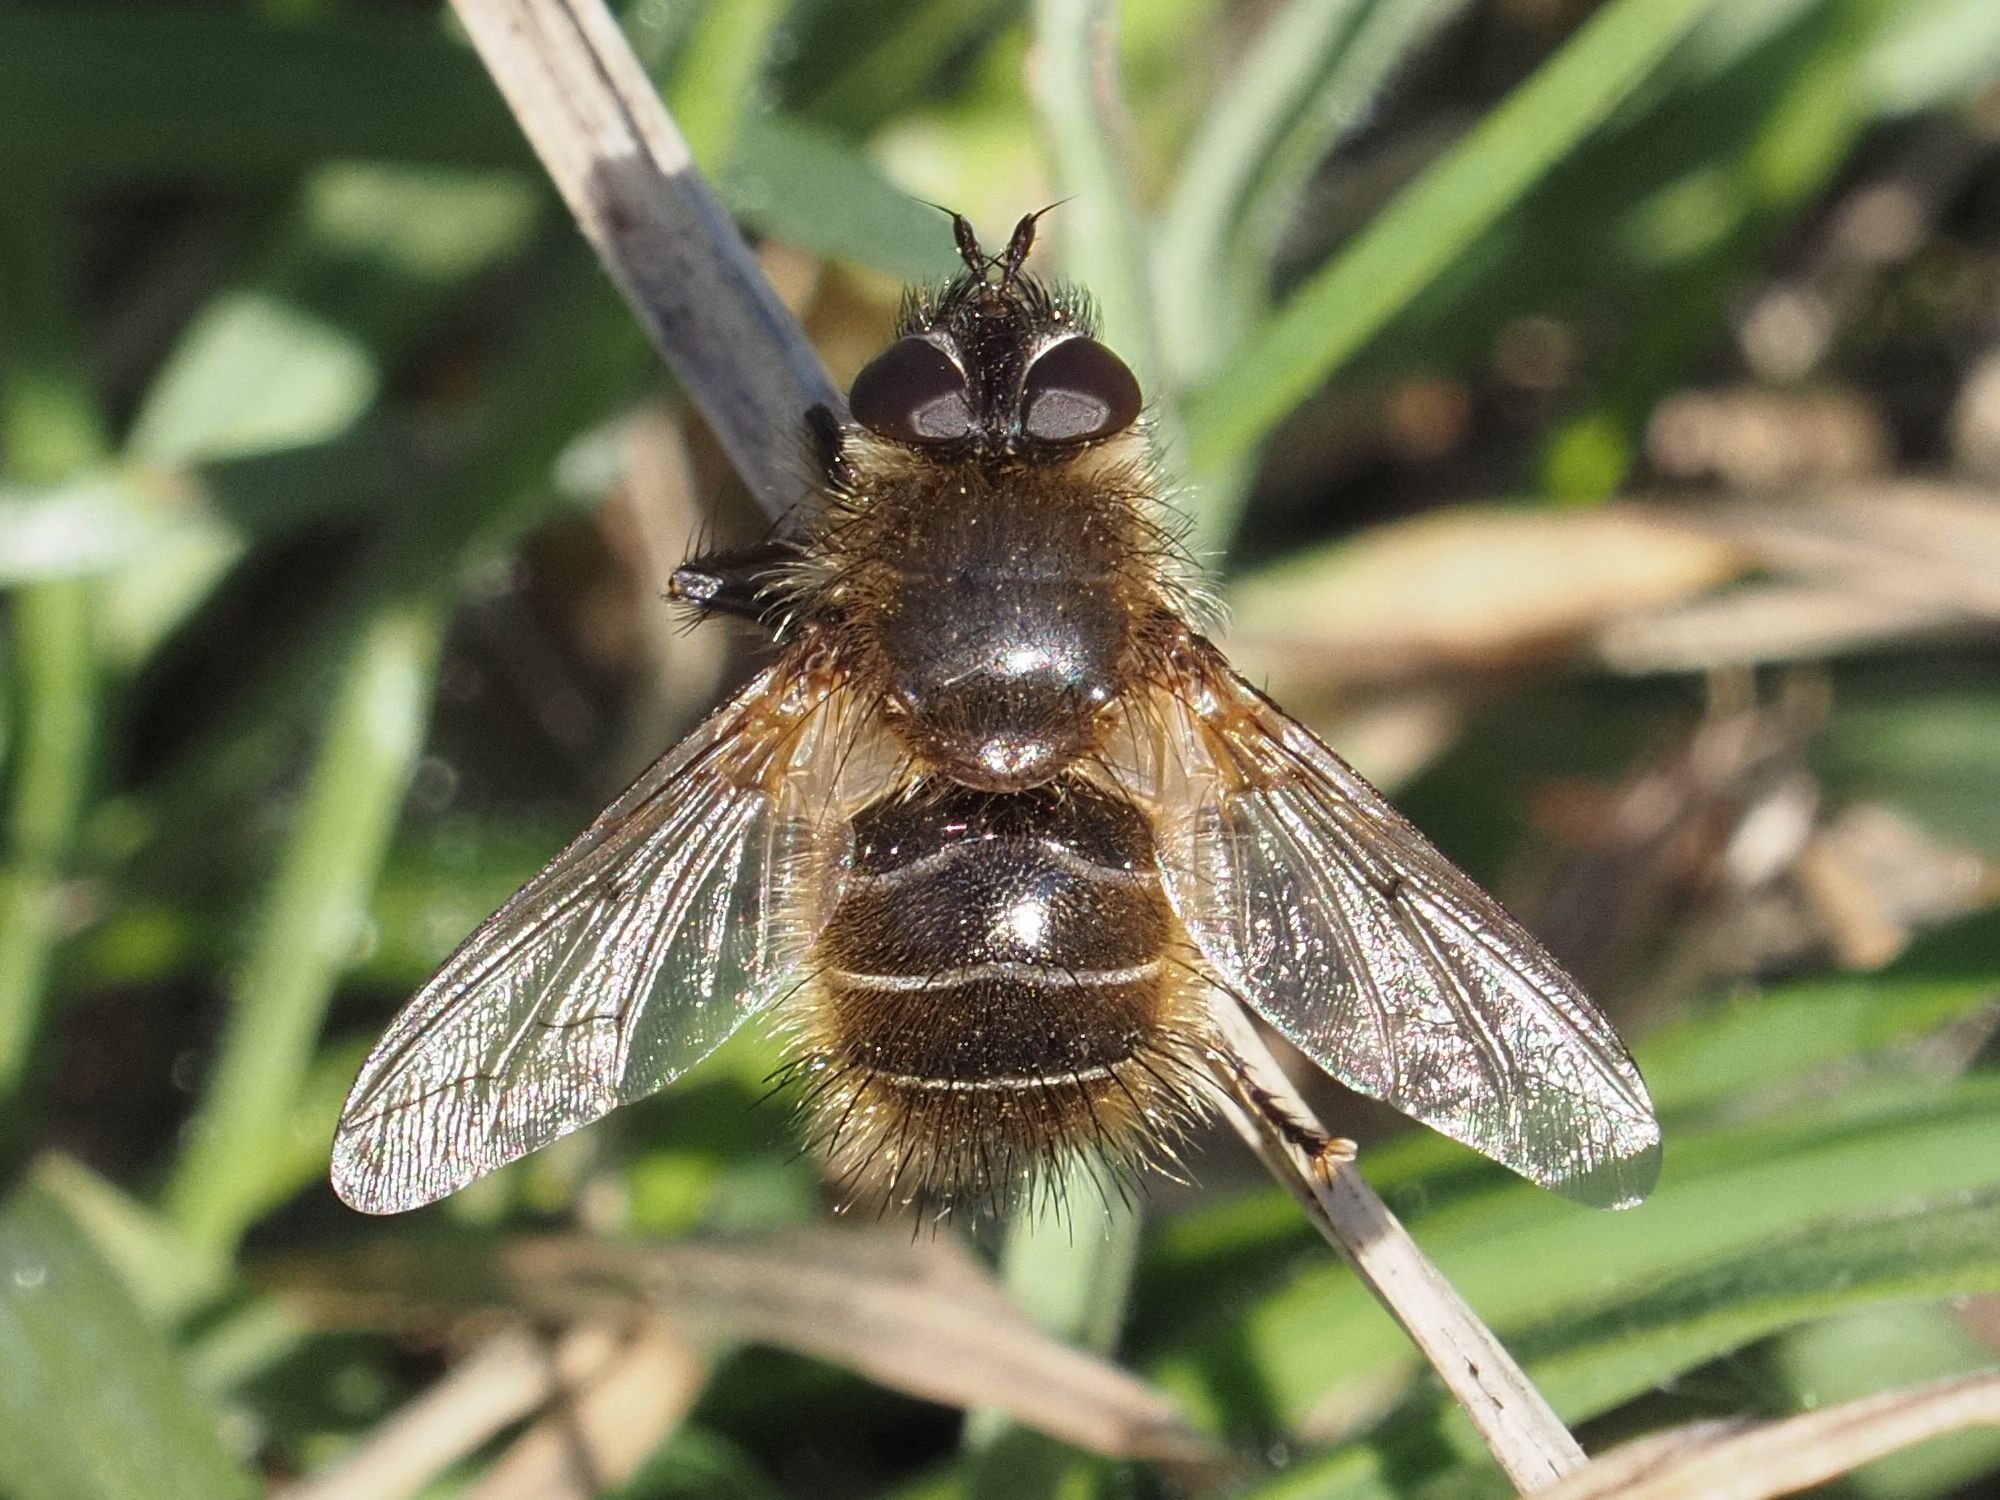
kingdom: Animalia
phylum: Arthropoda
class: Insecta
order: Diptera
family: Tachinidae
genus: Tachina
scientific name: Tachina ursina
